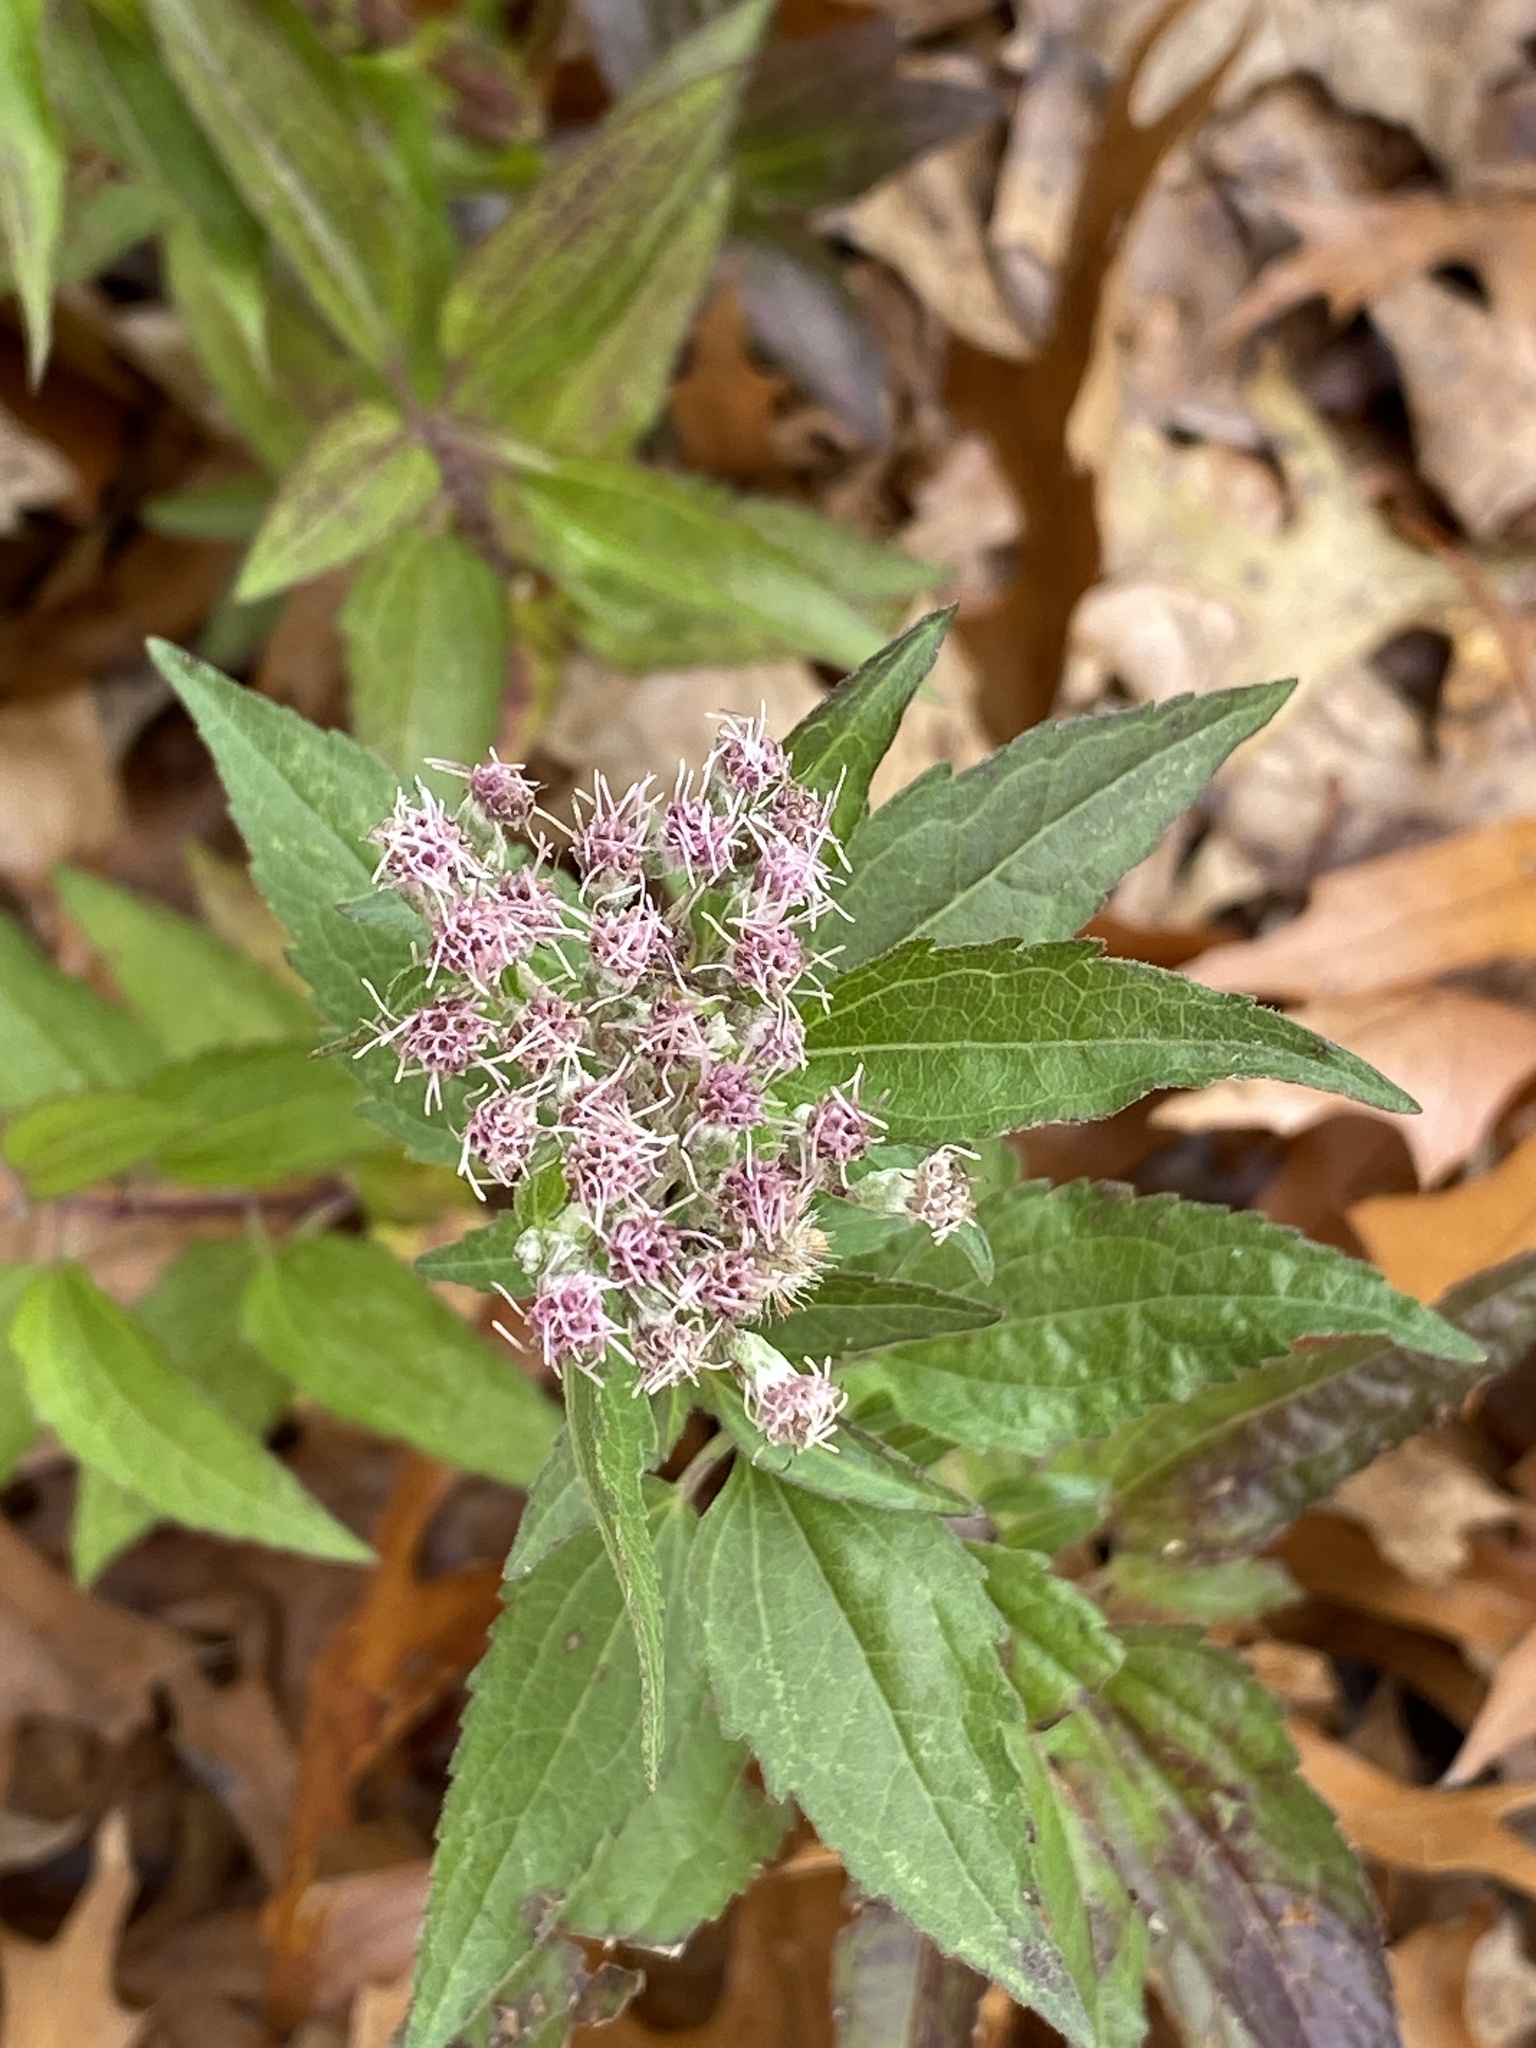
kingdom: Plantae
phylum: Tracheophyta
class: Magnoliopsida
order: Asterales
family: Asteraceae
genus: Eupatorium
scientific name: Eupatorium serotinum
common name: Late boneset
